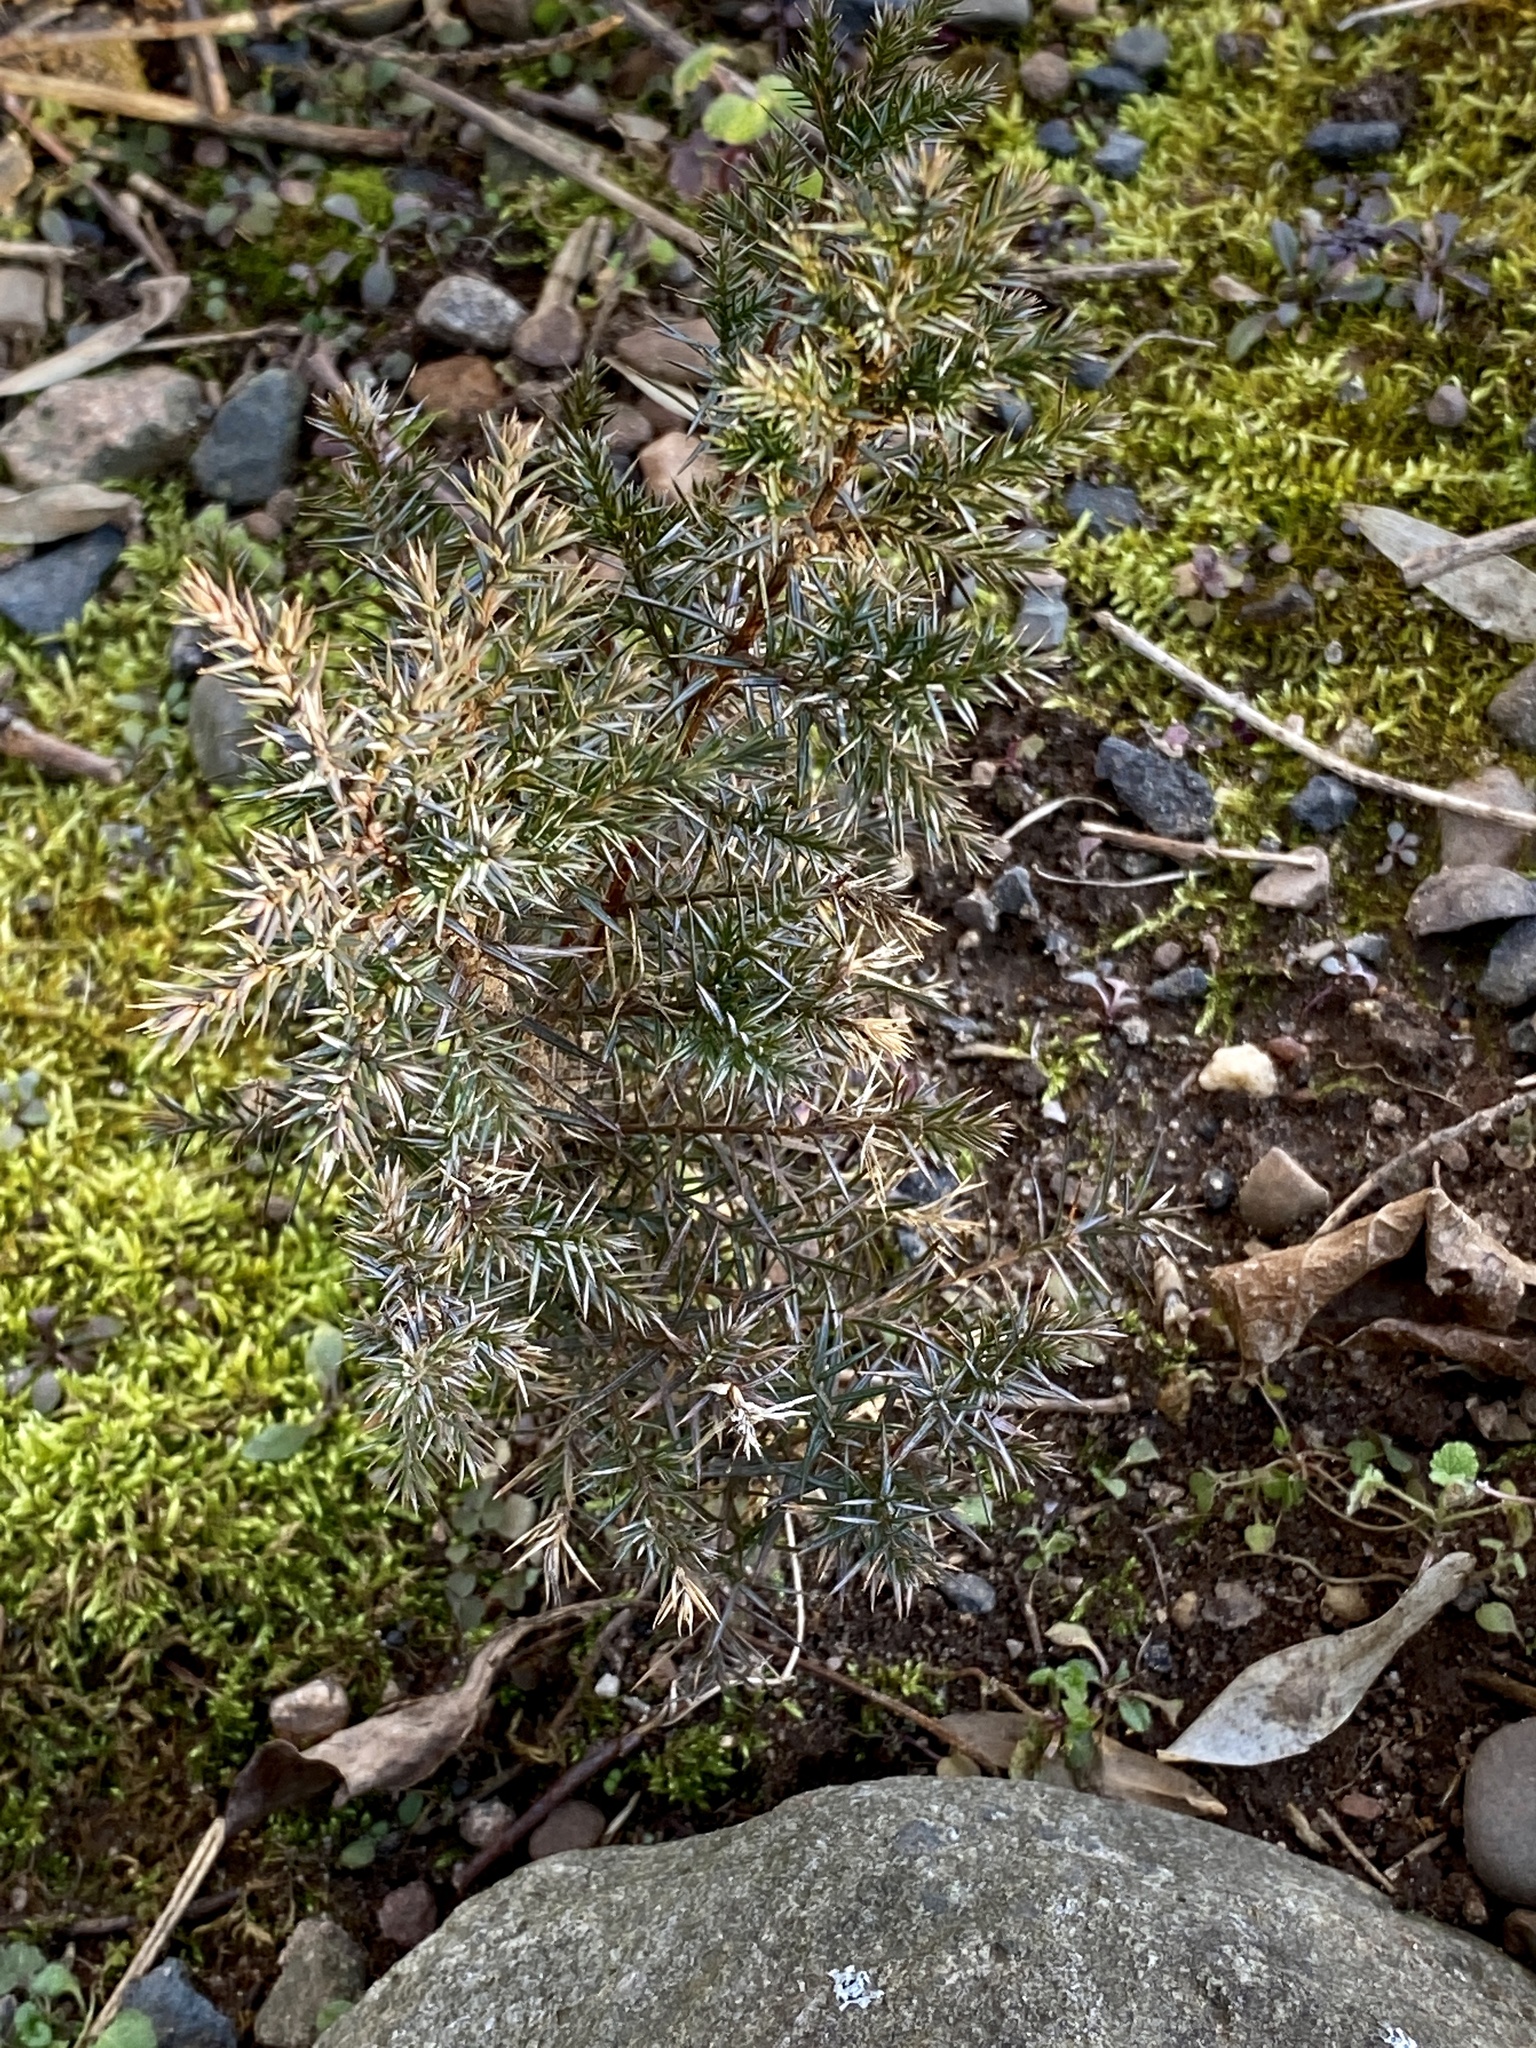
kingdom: Plantae
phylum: Tracheophyta
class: Pinopsida
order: Pinales
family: Cupressaceae
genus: Juniperus
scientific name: Juniperus virginiana
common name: Red juniper
